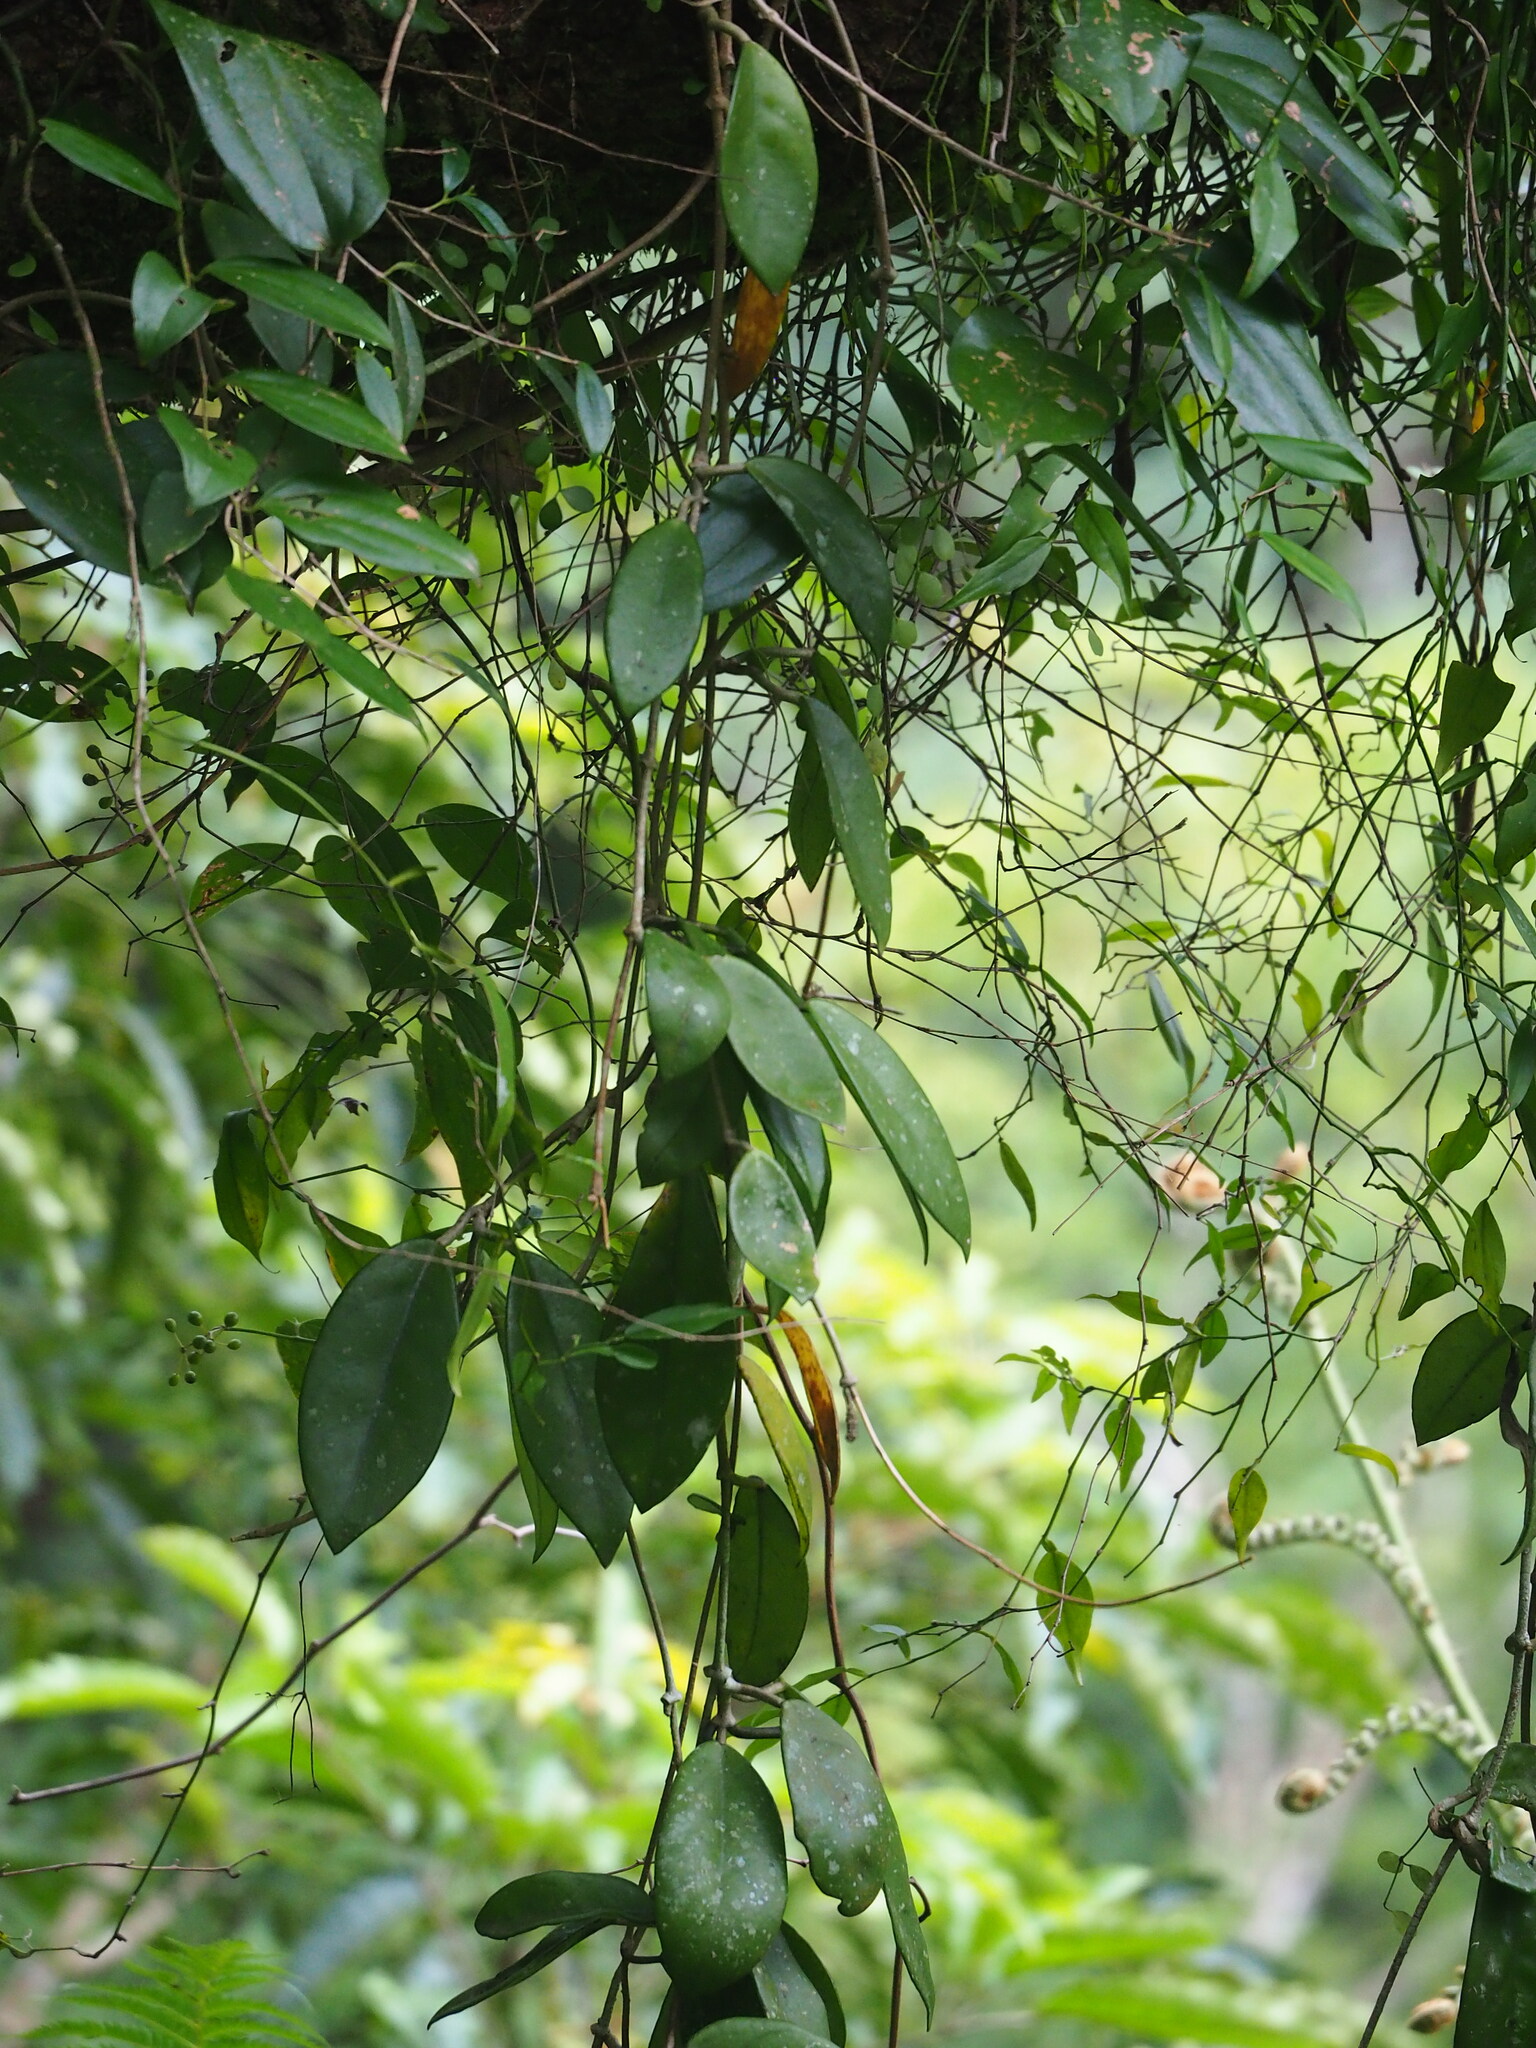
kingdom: Plantae
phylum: Tracheophyta
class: Magnoliopsida
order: Gentianales
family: Apocynaceae
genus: Hoya
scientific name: Hoya carnosa
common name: Honeyplant
